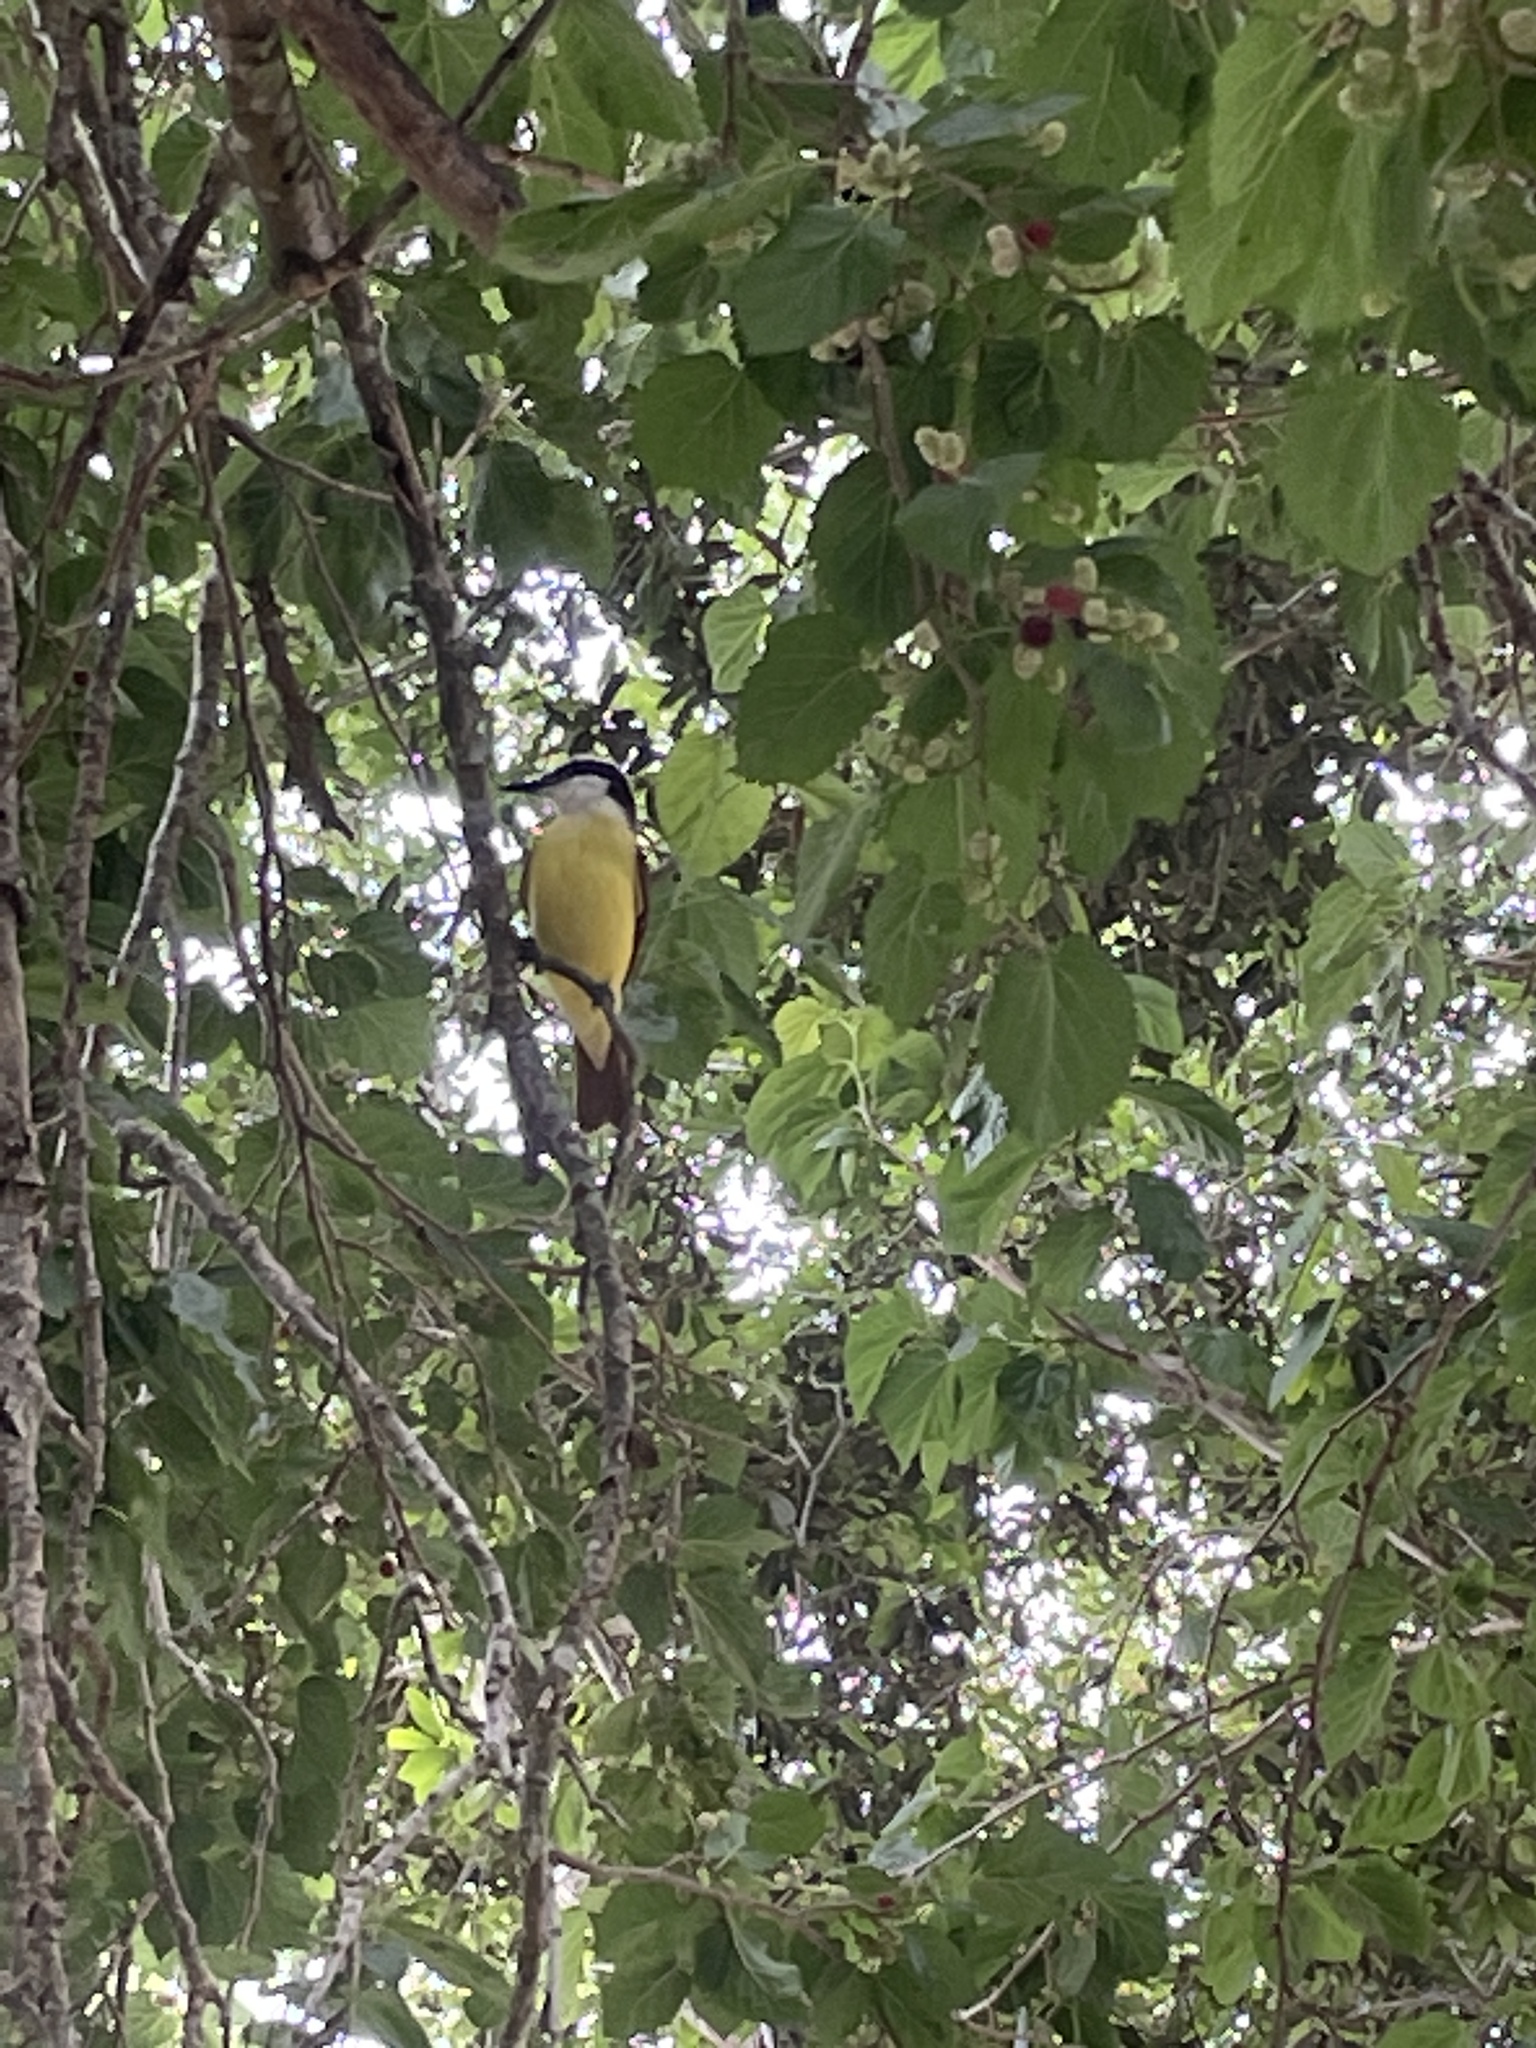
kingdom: Animalia
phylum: Chordata
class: Aves
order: Passeriformes
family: Tyrannidae
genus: Pitangus
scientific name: Pitangus sulphuratus
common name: Great kiskadee
